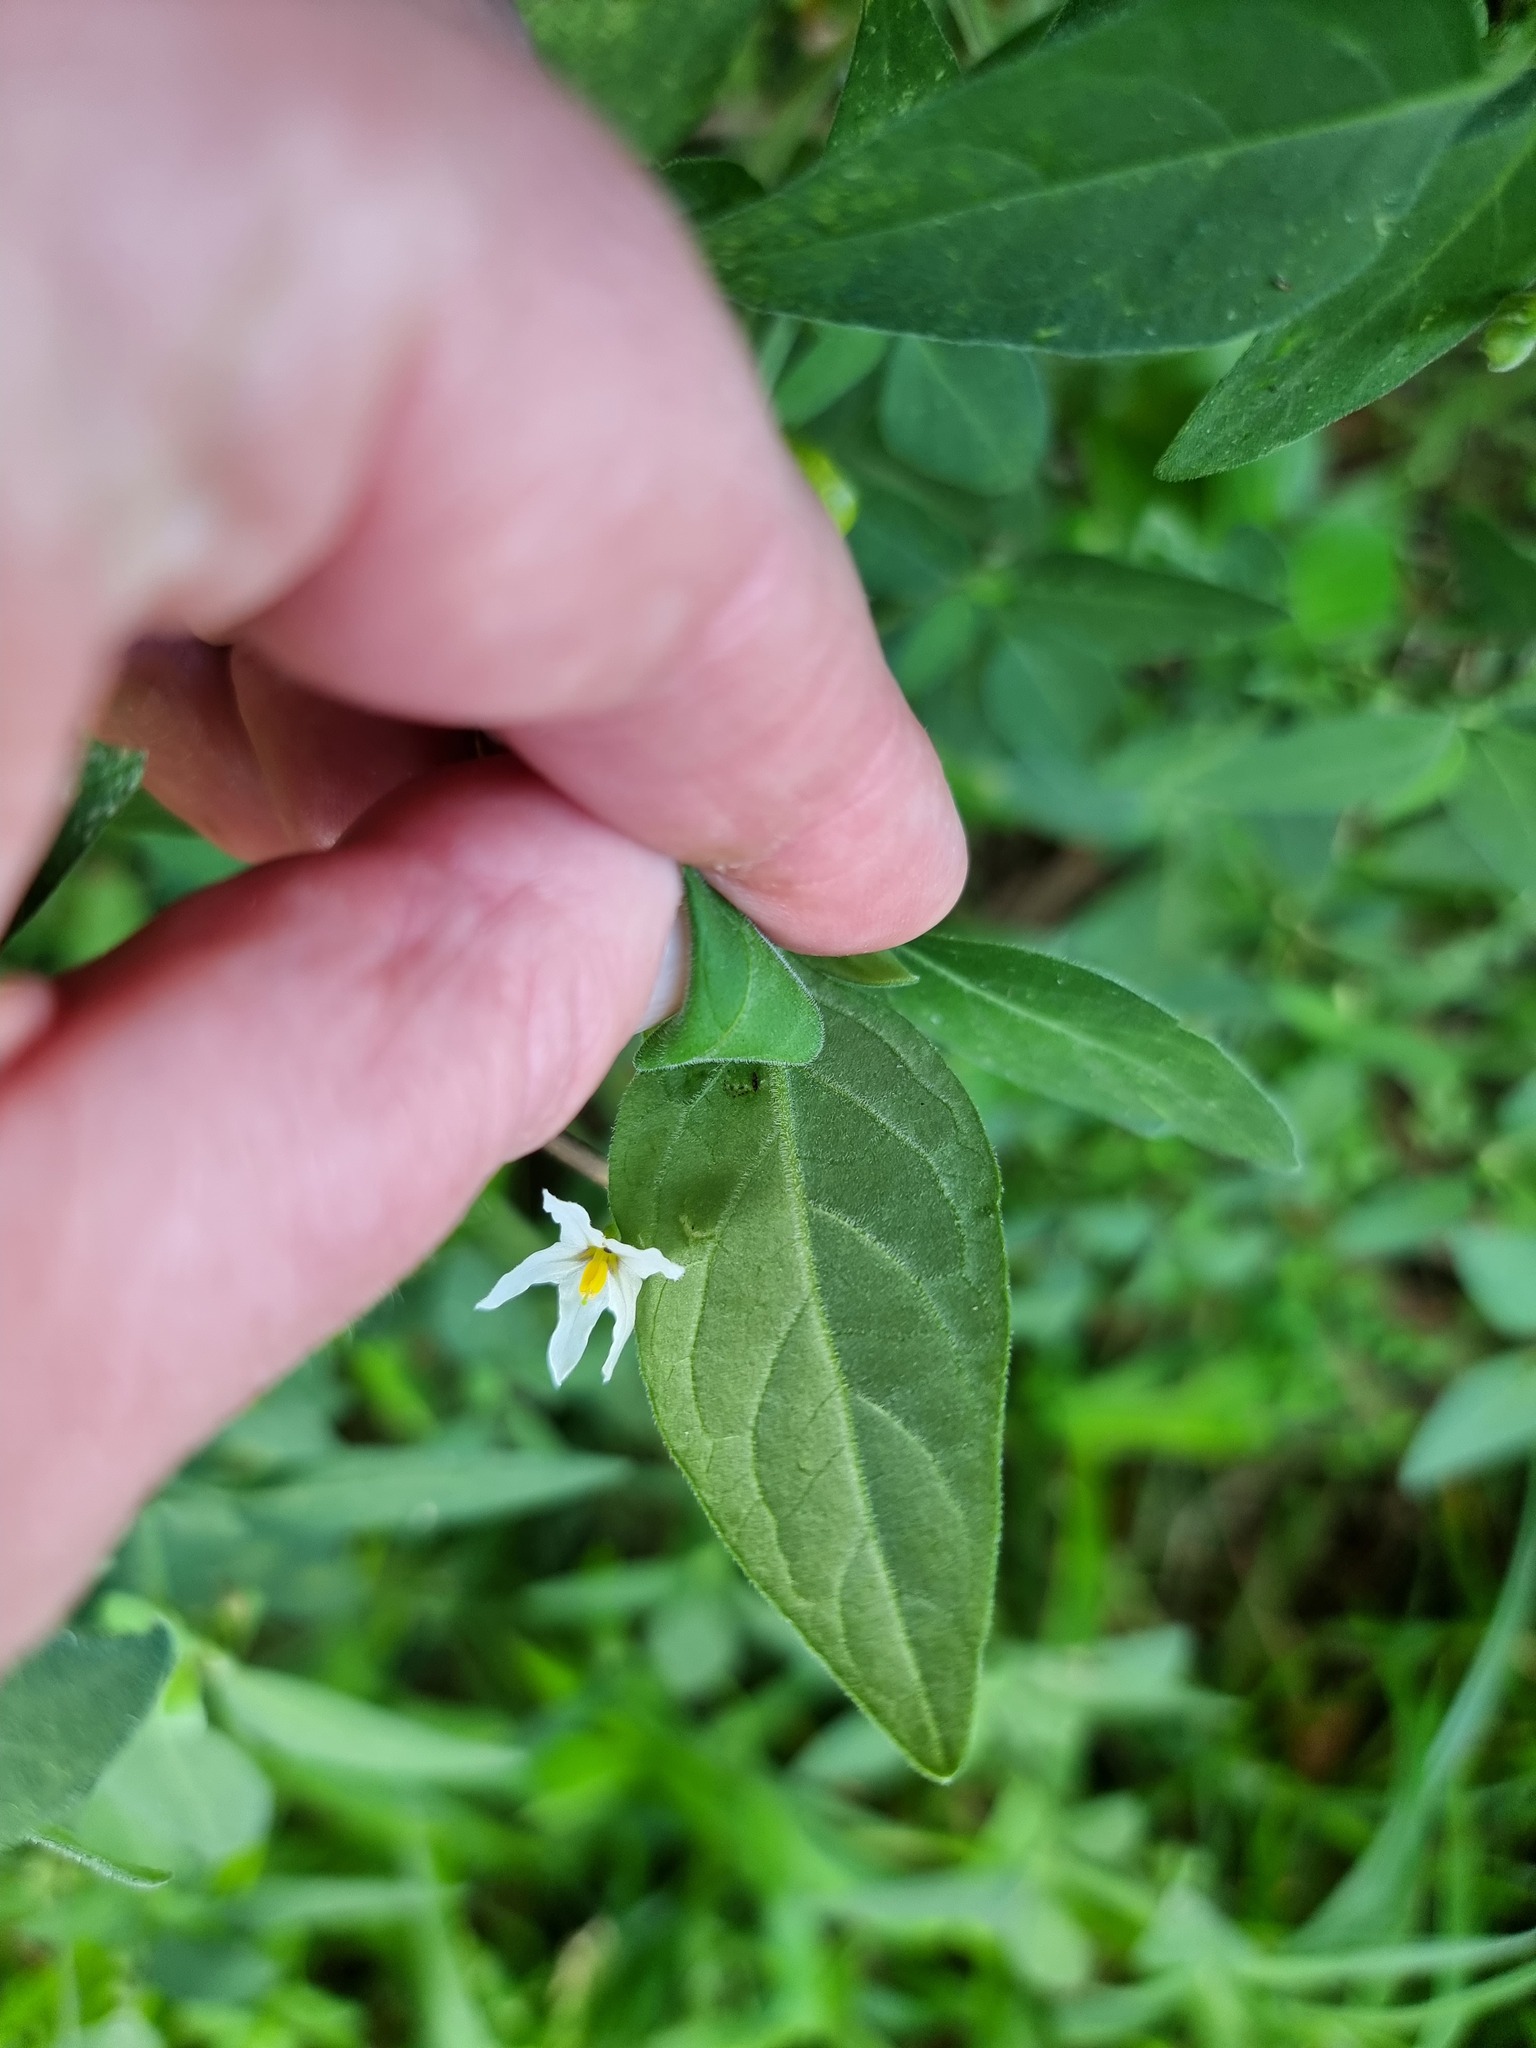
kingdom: Plantae
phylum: Tracheophyta
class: Magnoliopsida
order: Solanales
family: Solanaceae
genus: Solanum
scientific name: Solanum chenopodioides
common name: Tall nightshade
